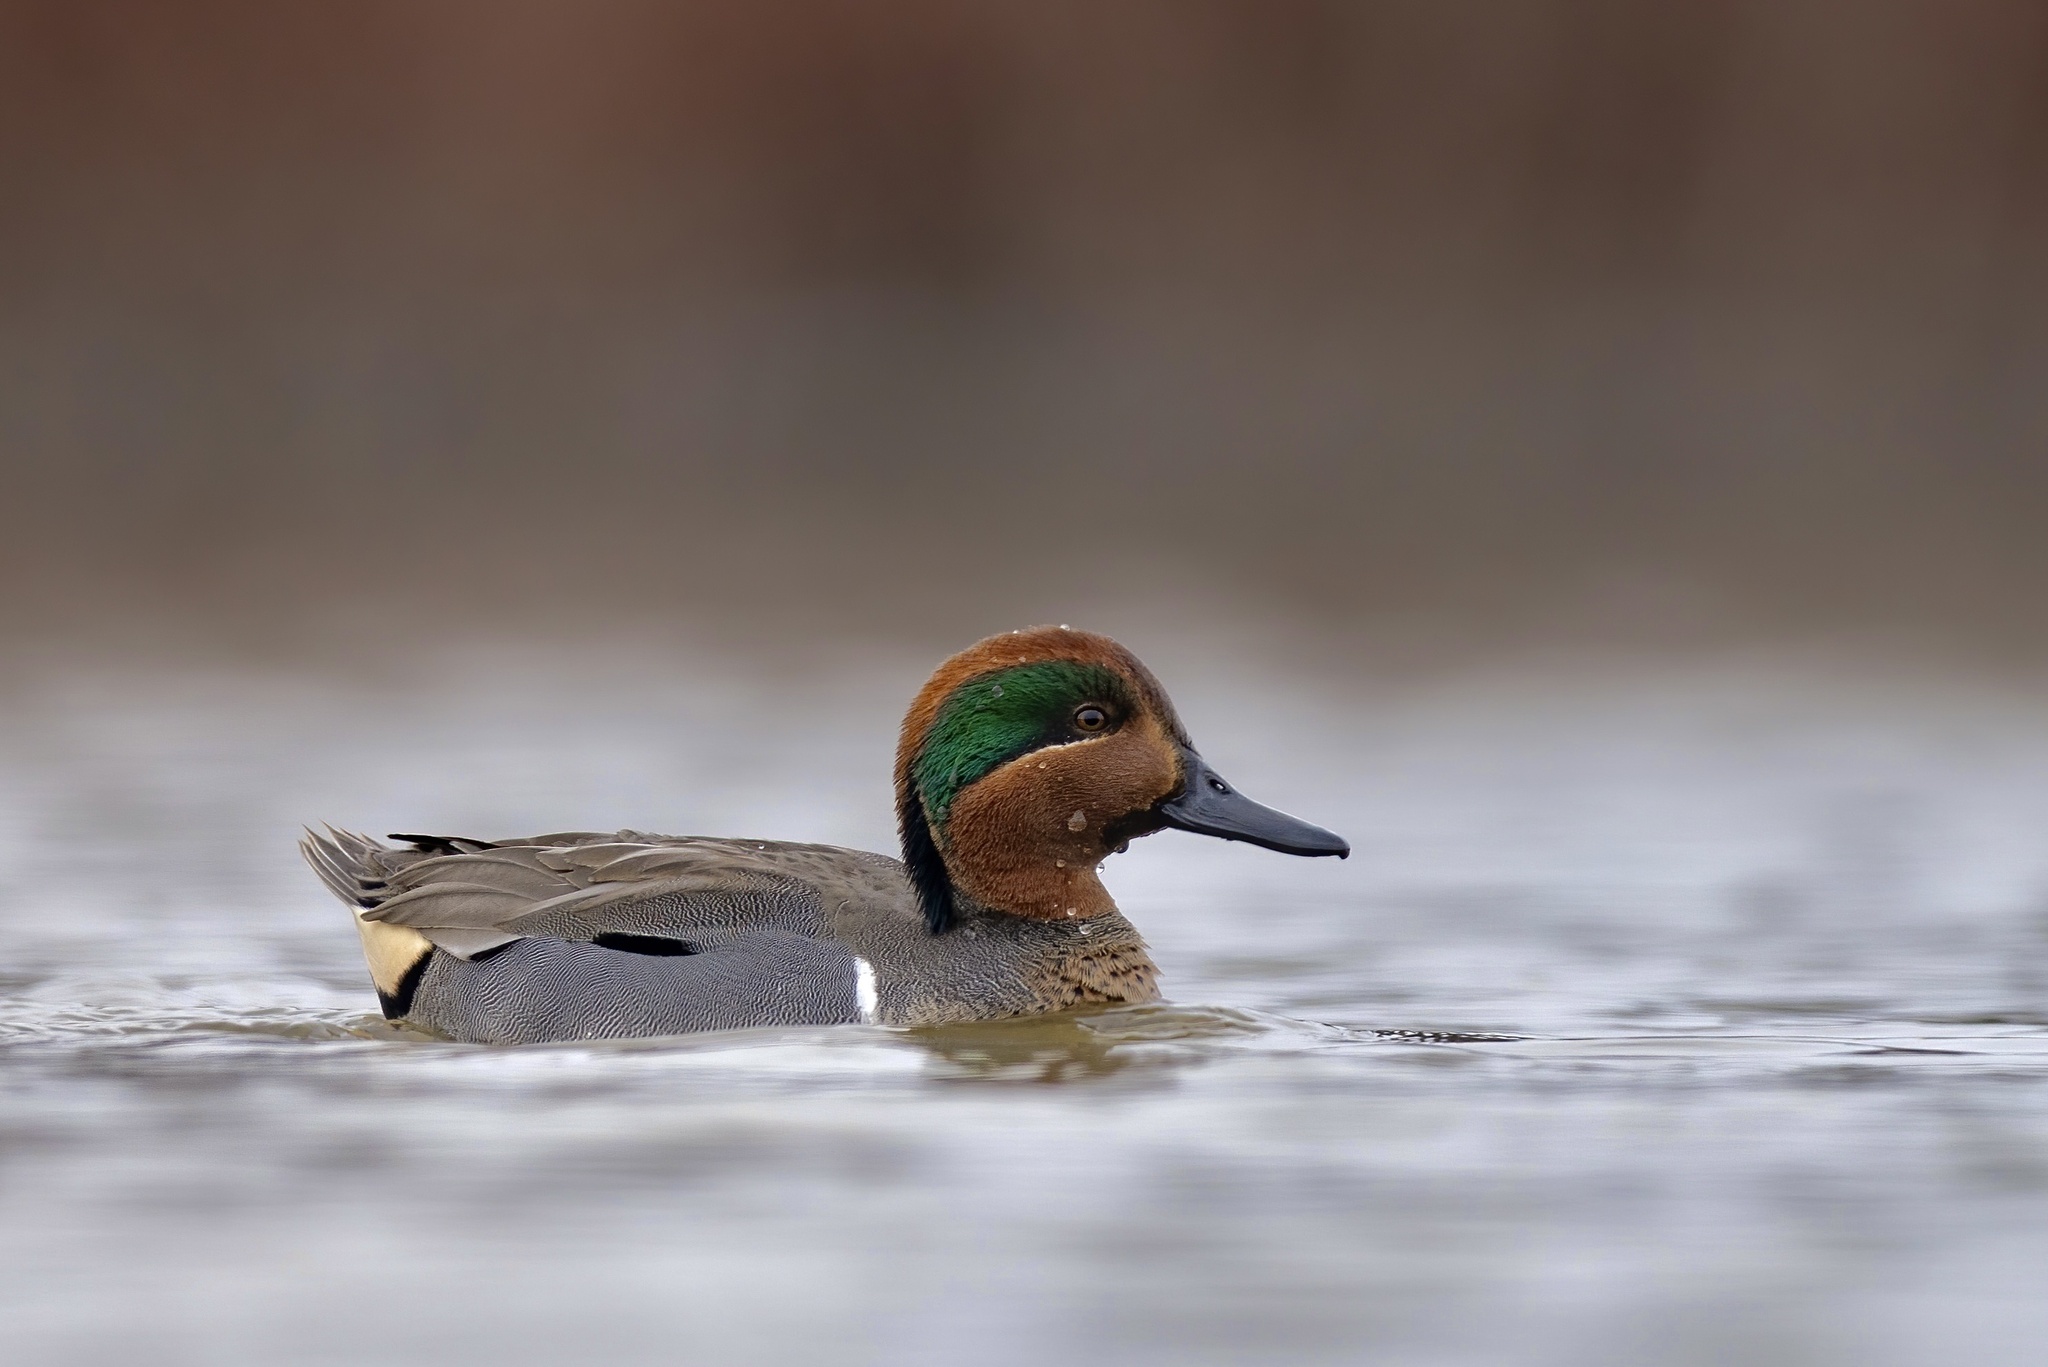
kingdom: Animalia
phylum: Chordata
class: Aves
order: Anseriformes
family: Anatidae
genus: Anas
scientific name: Anas crecca
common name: Eurasian teal
